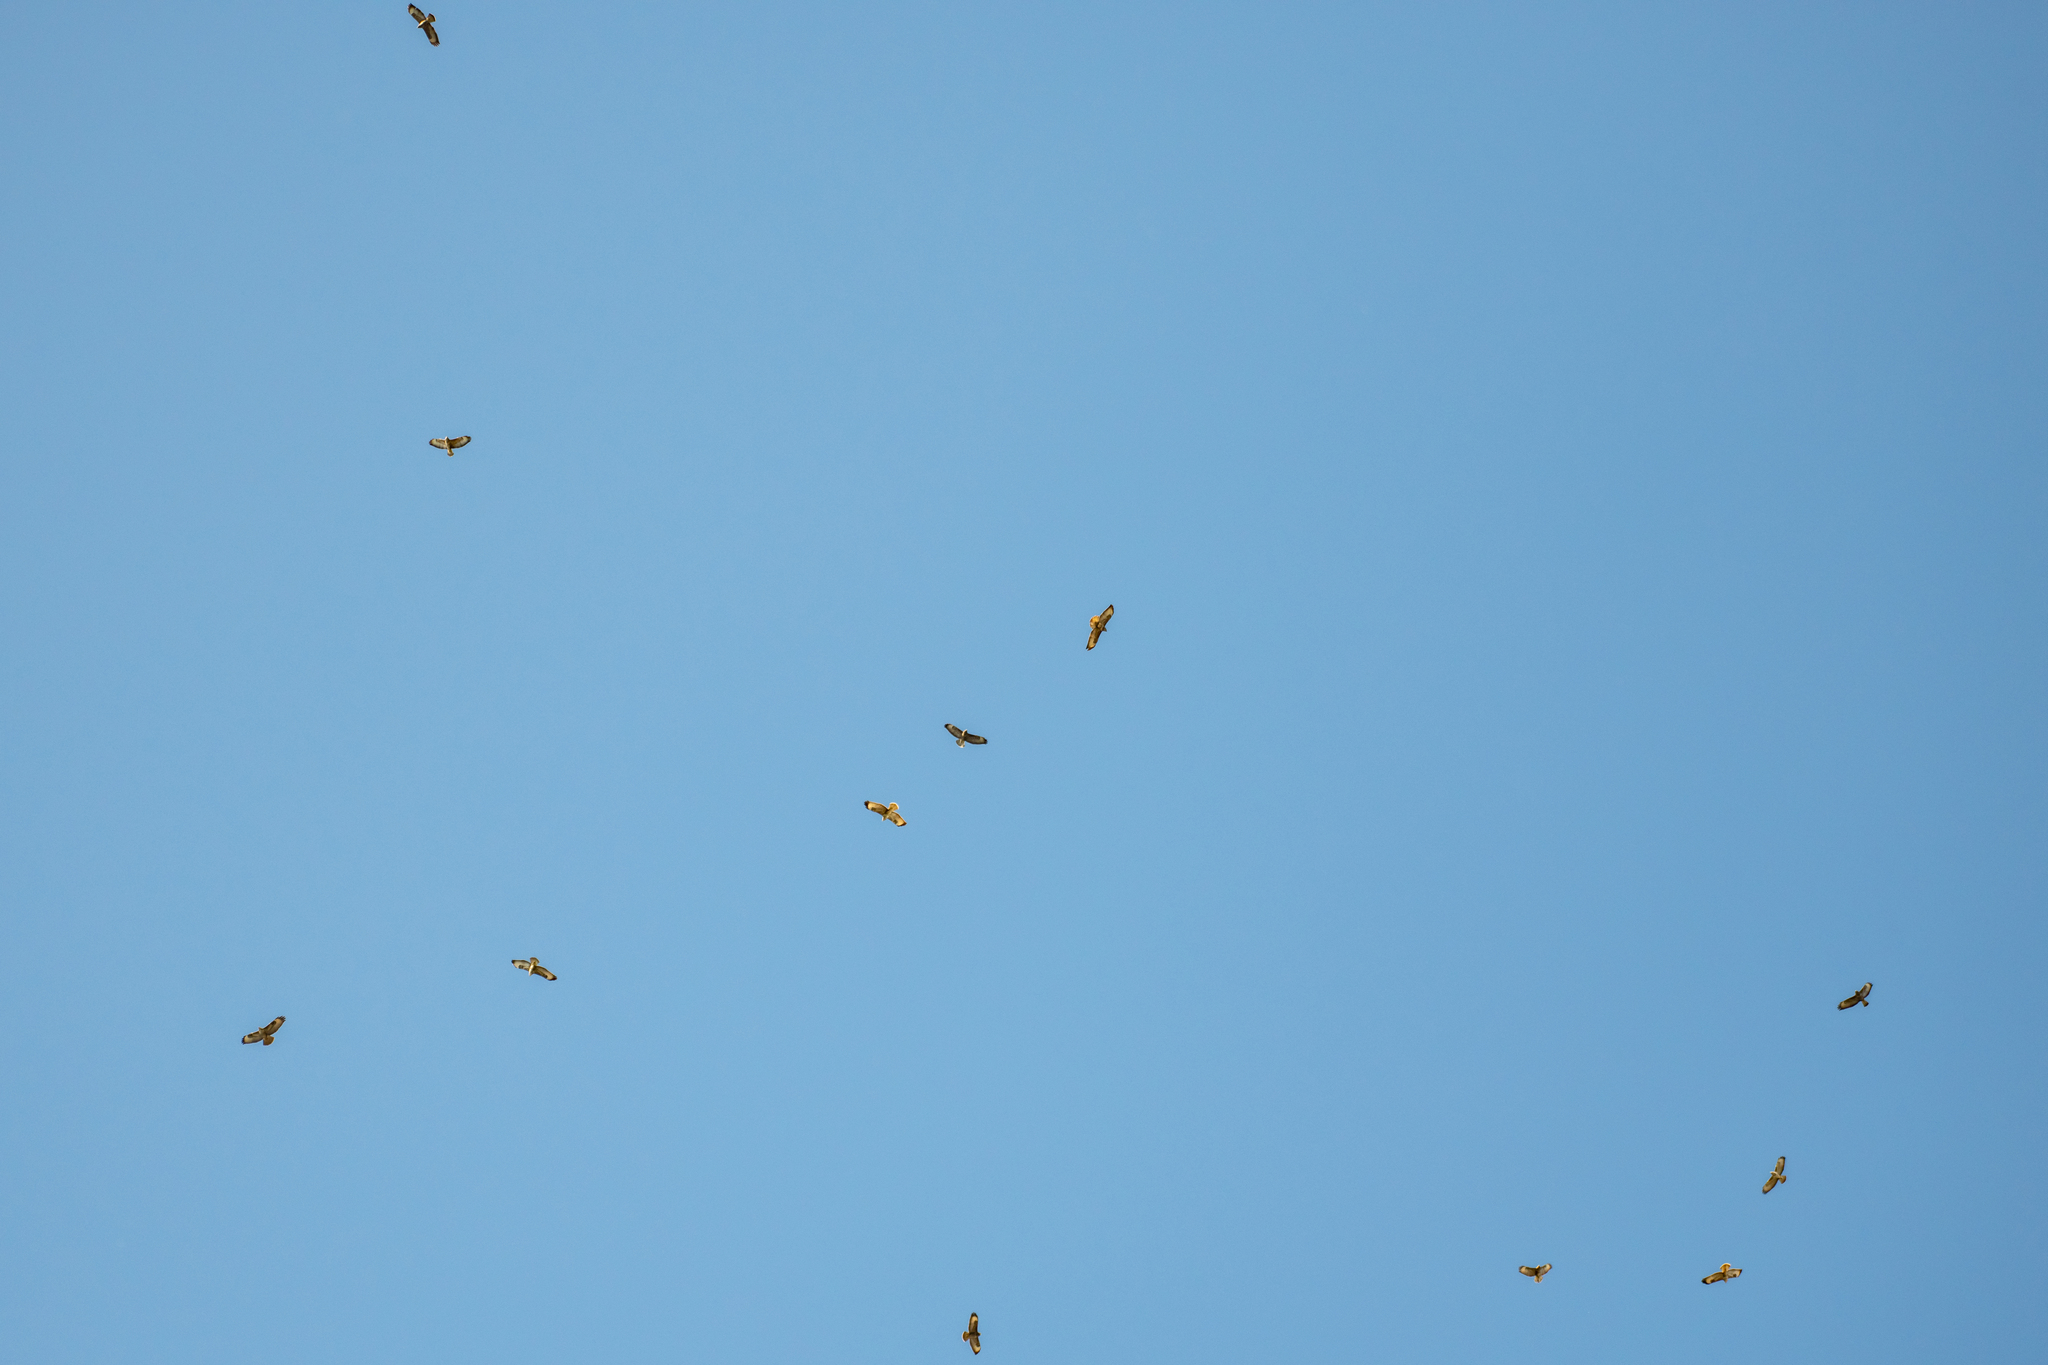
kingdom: Animalia
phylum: Chordata
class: Aves
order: Accipitriformes
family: Accipitridae
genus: Buteo
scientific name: Buteo buteo
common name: Common buzzard
